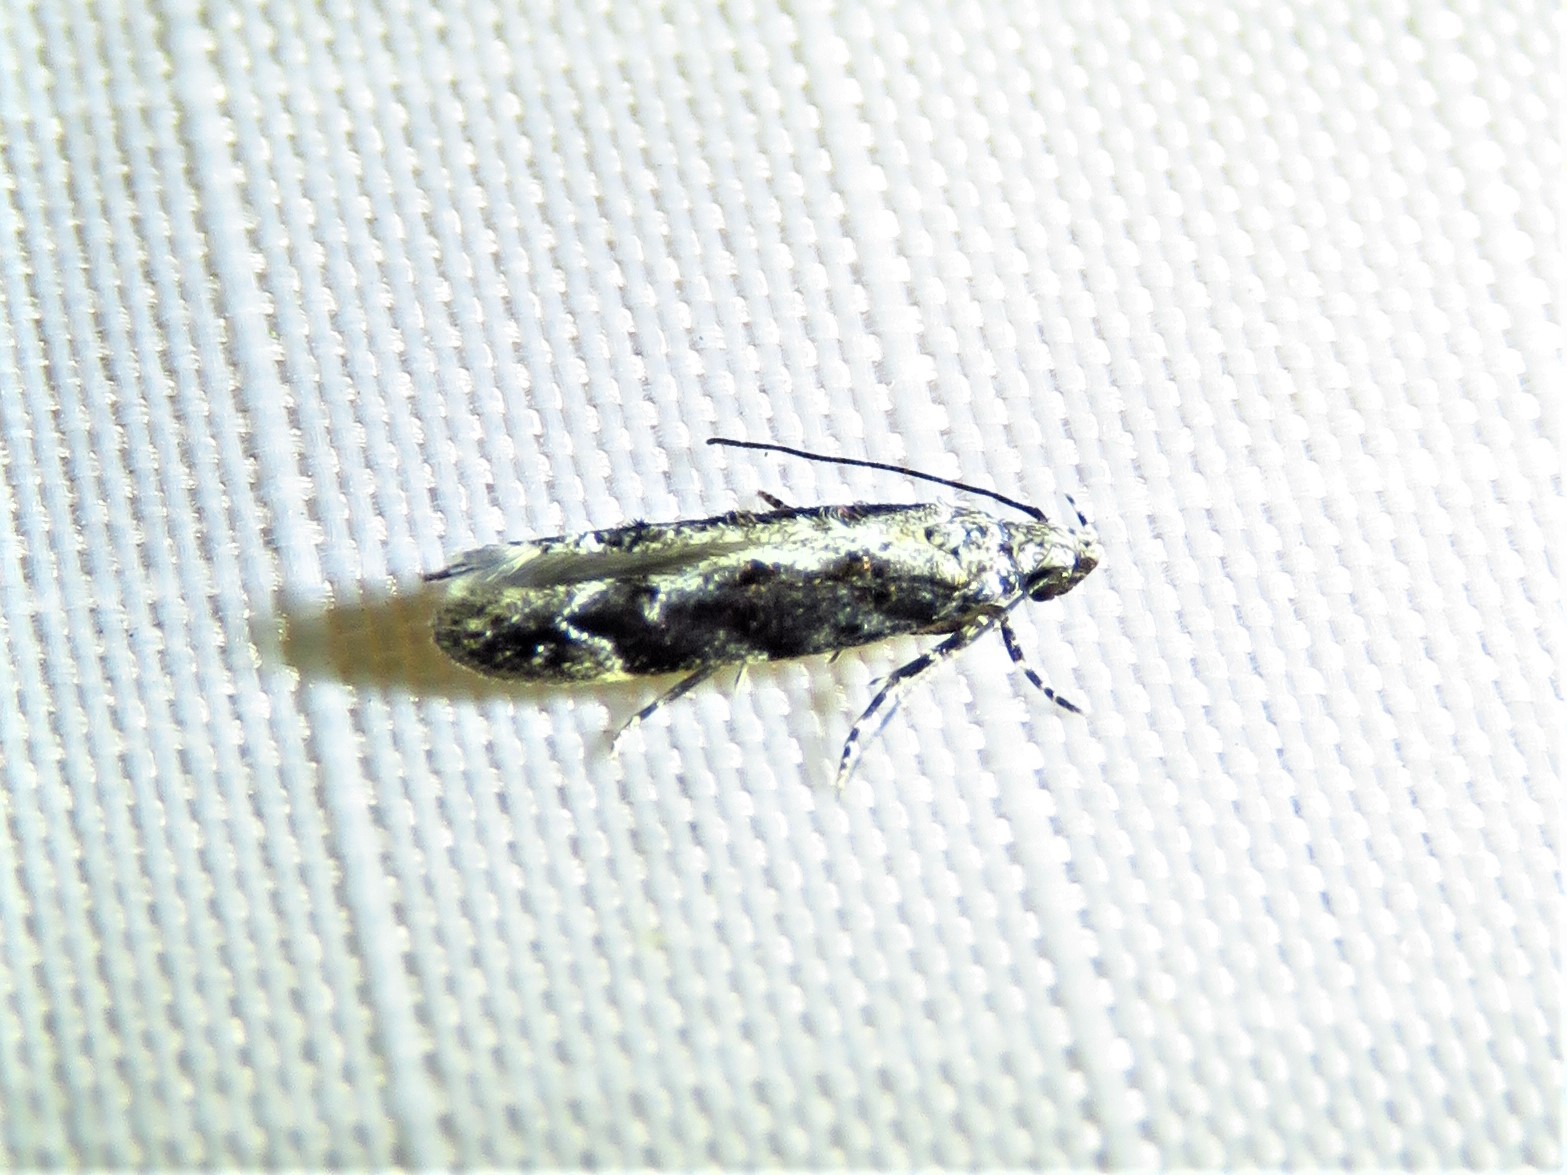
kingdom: Animalia
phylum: Arthropoda
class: Insecta
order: Lepidoptera
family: Gelechiidae
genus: Coleotechnites
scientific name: Coleotechnites florae
